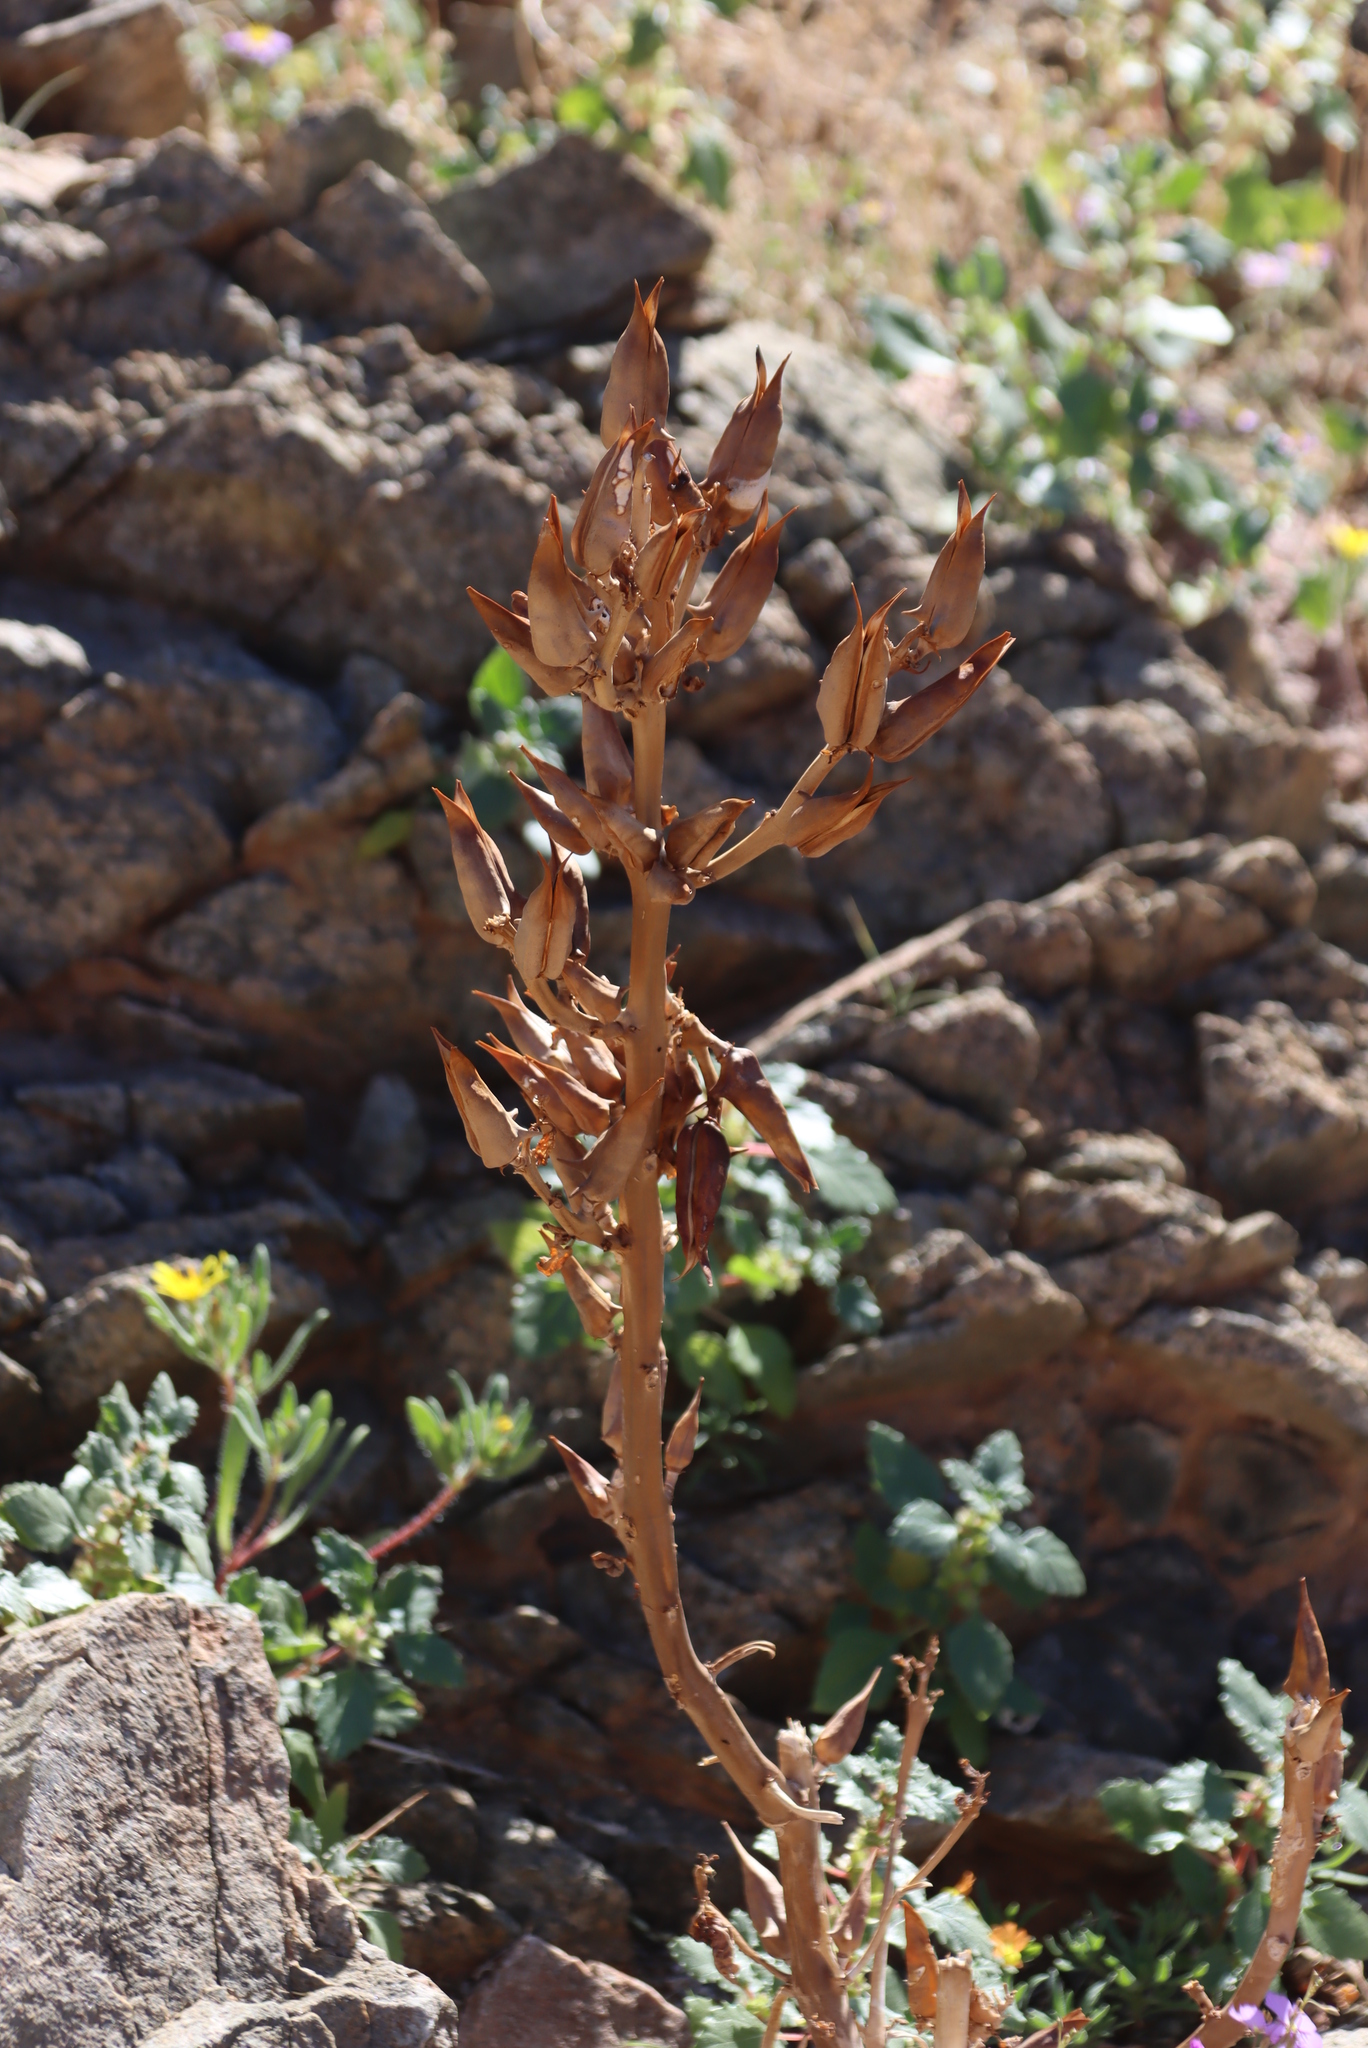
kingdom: Plantae
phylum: Tracheophyta
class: Magnoliopsida
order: Lamiales
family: Pedaliaceae
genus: Rogeria
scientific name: Rogeria longiflora
